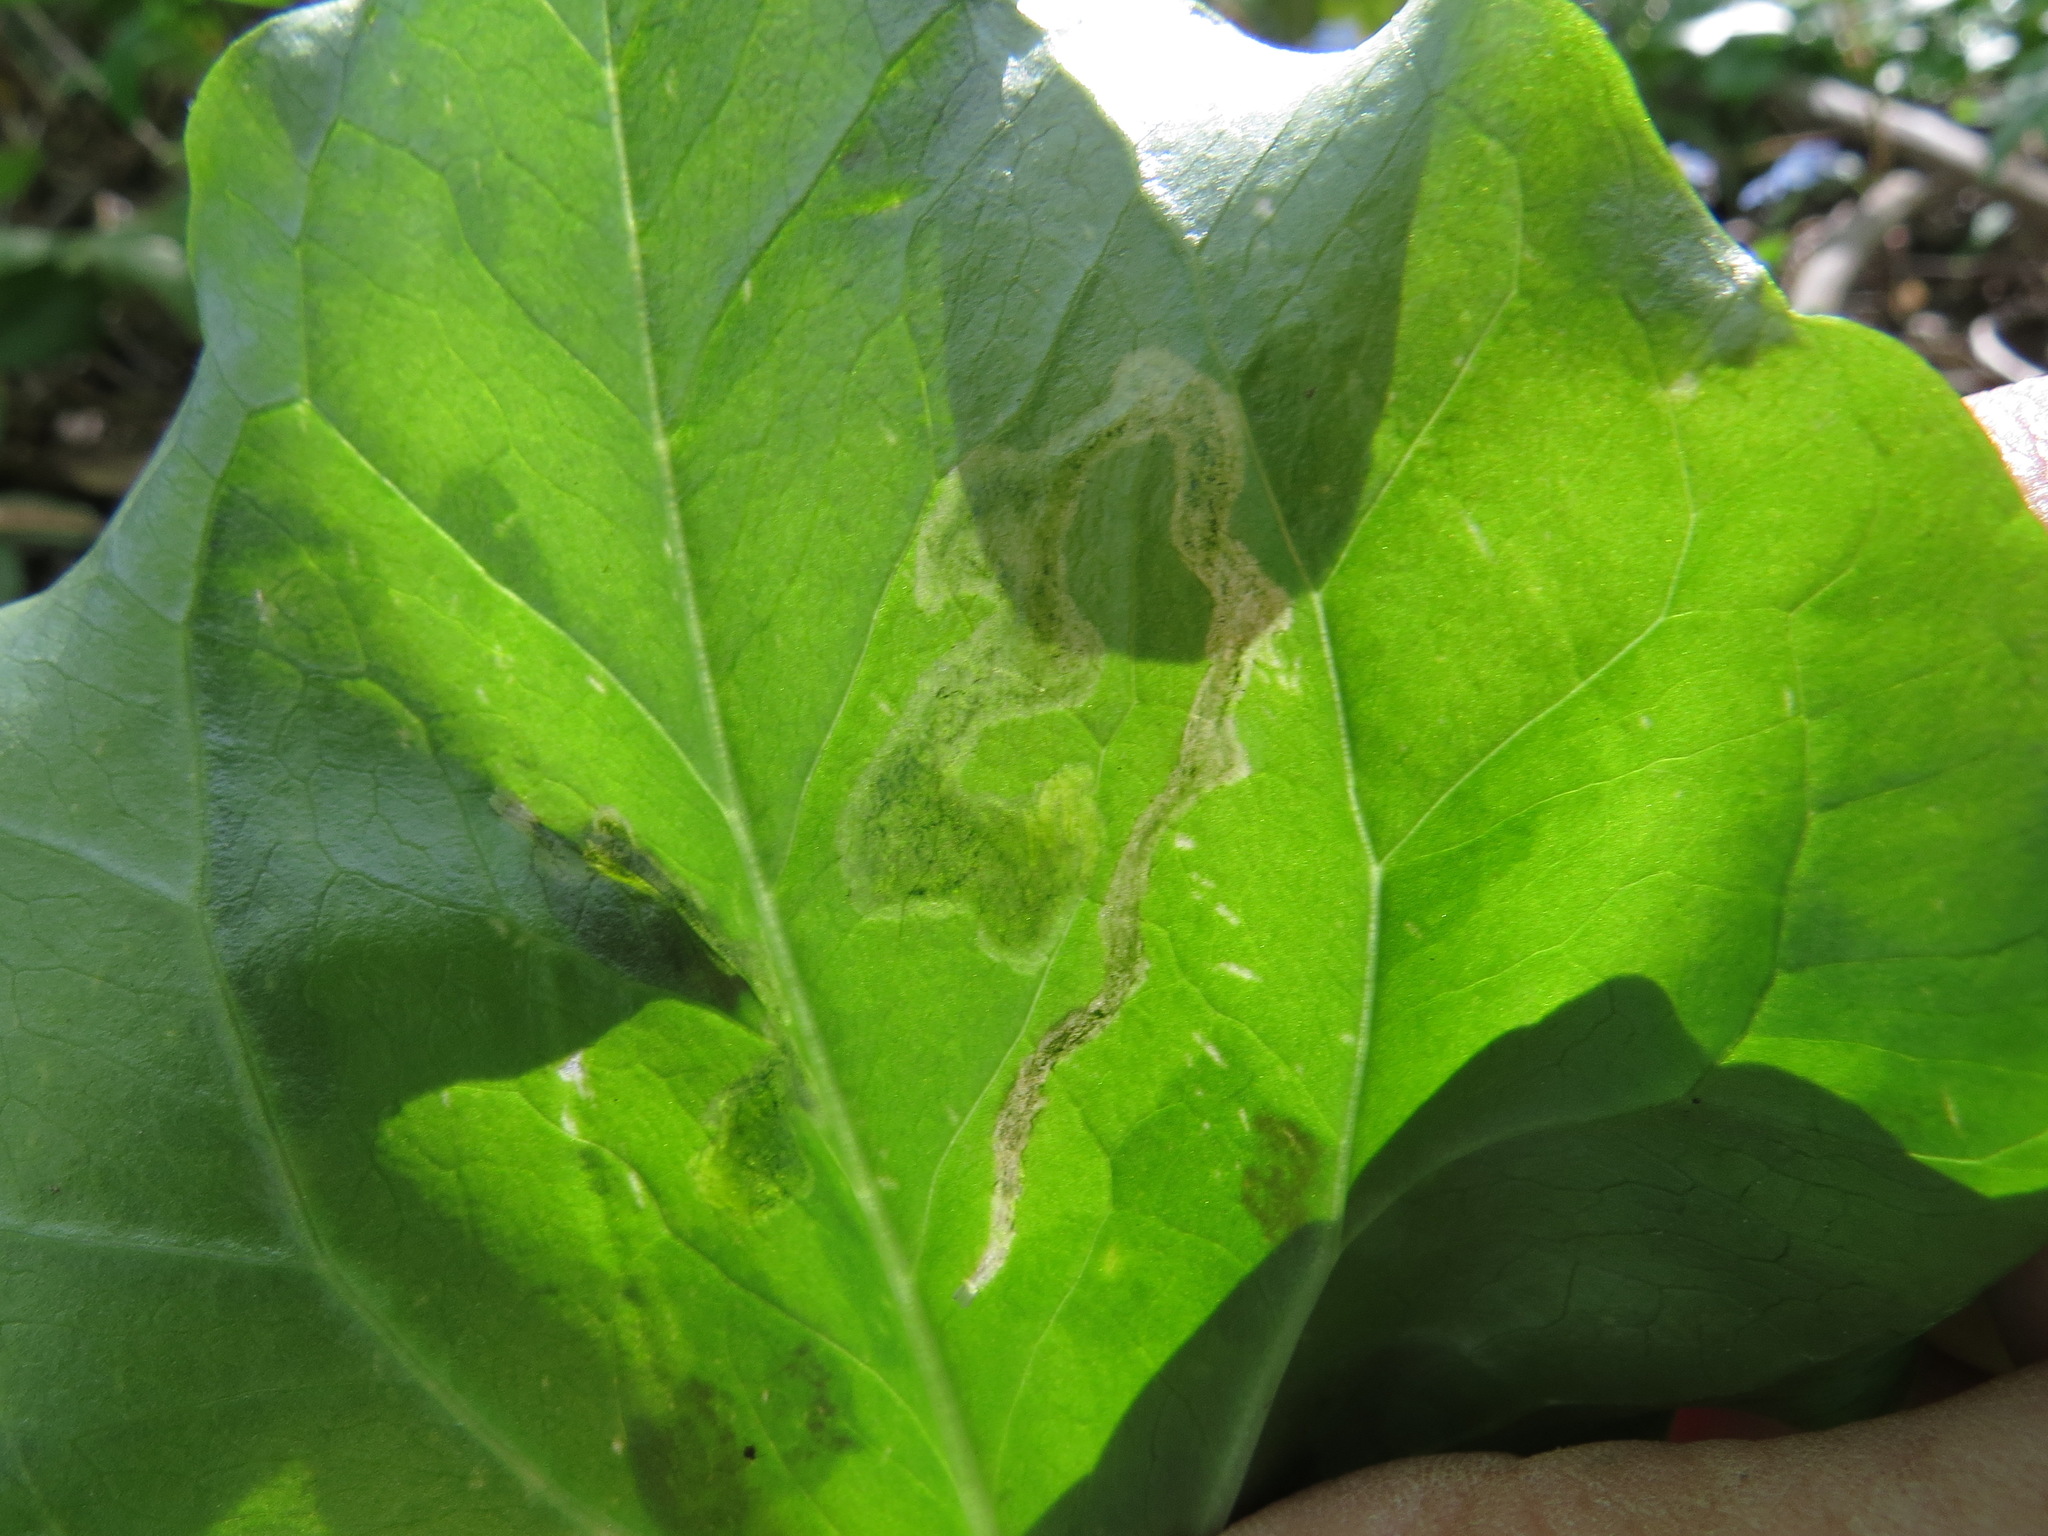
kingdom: Animalia
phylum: Arthropoda
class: Insecta
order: Diptera
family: Scathophagidae
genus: Leptopa
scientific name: Leptopa
